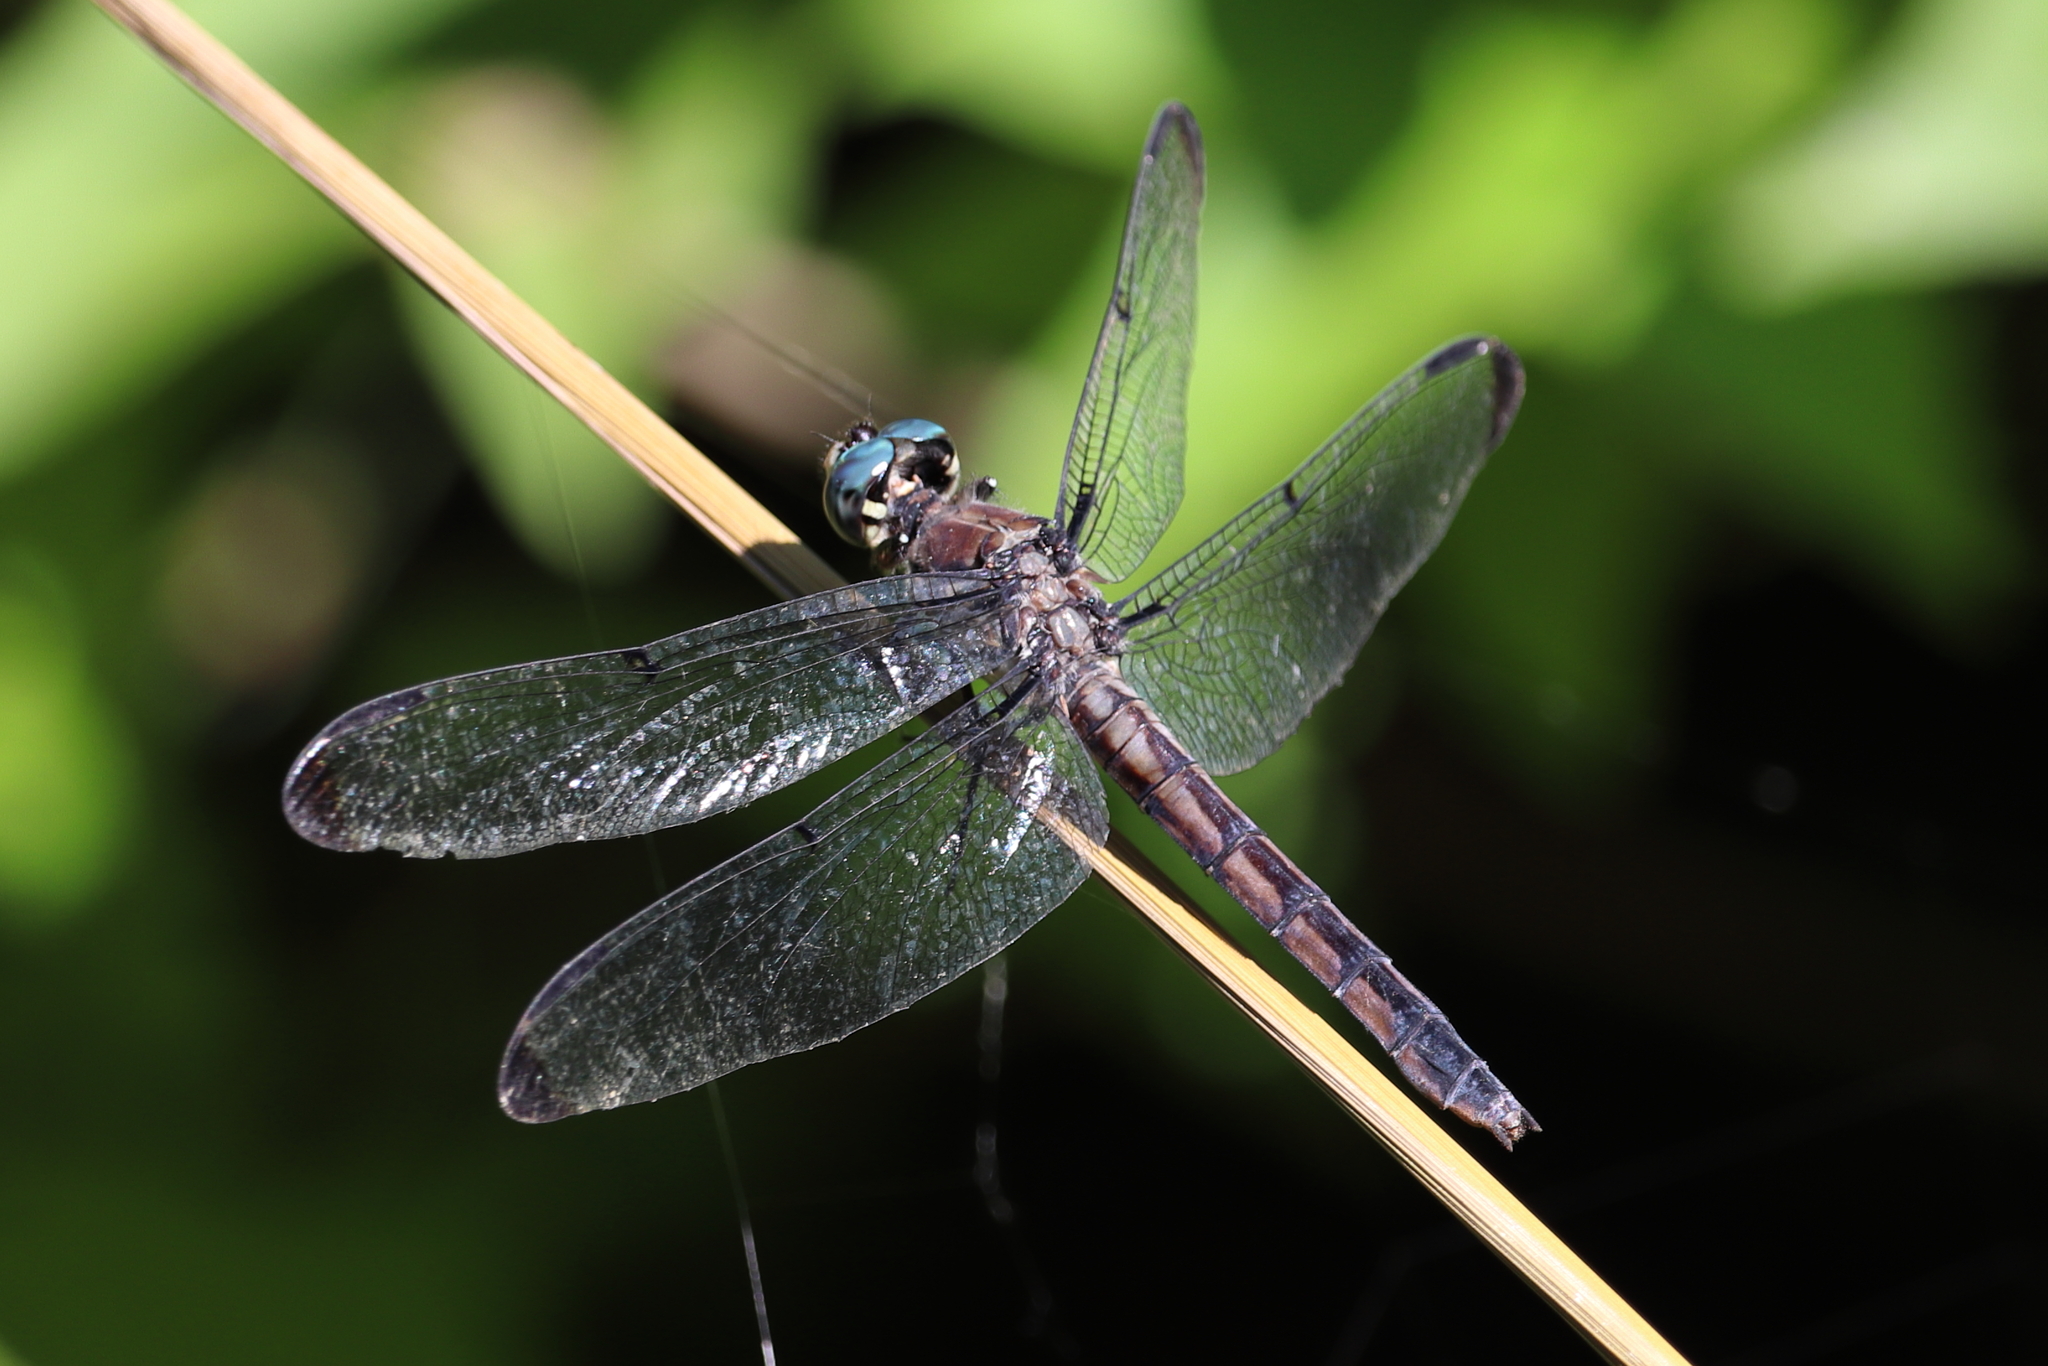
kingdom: Animalia
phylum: Arthropoda
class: Insecta
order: Odonata
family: Libellulidae
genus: Libellula
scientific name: Libellula vibrans
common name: Great blue skimmer
